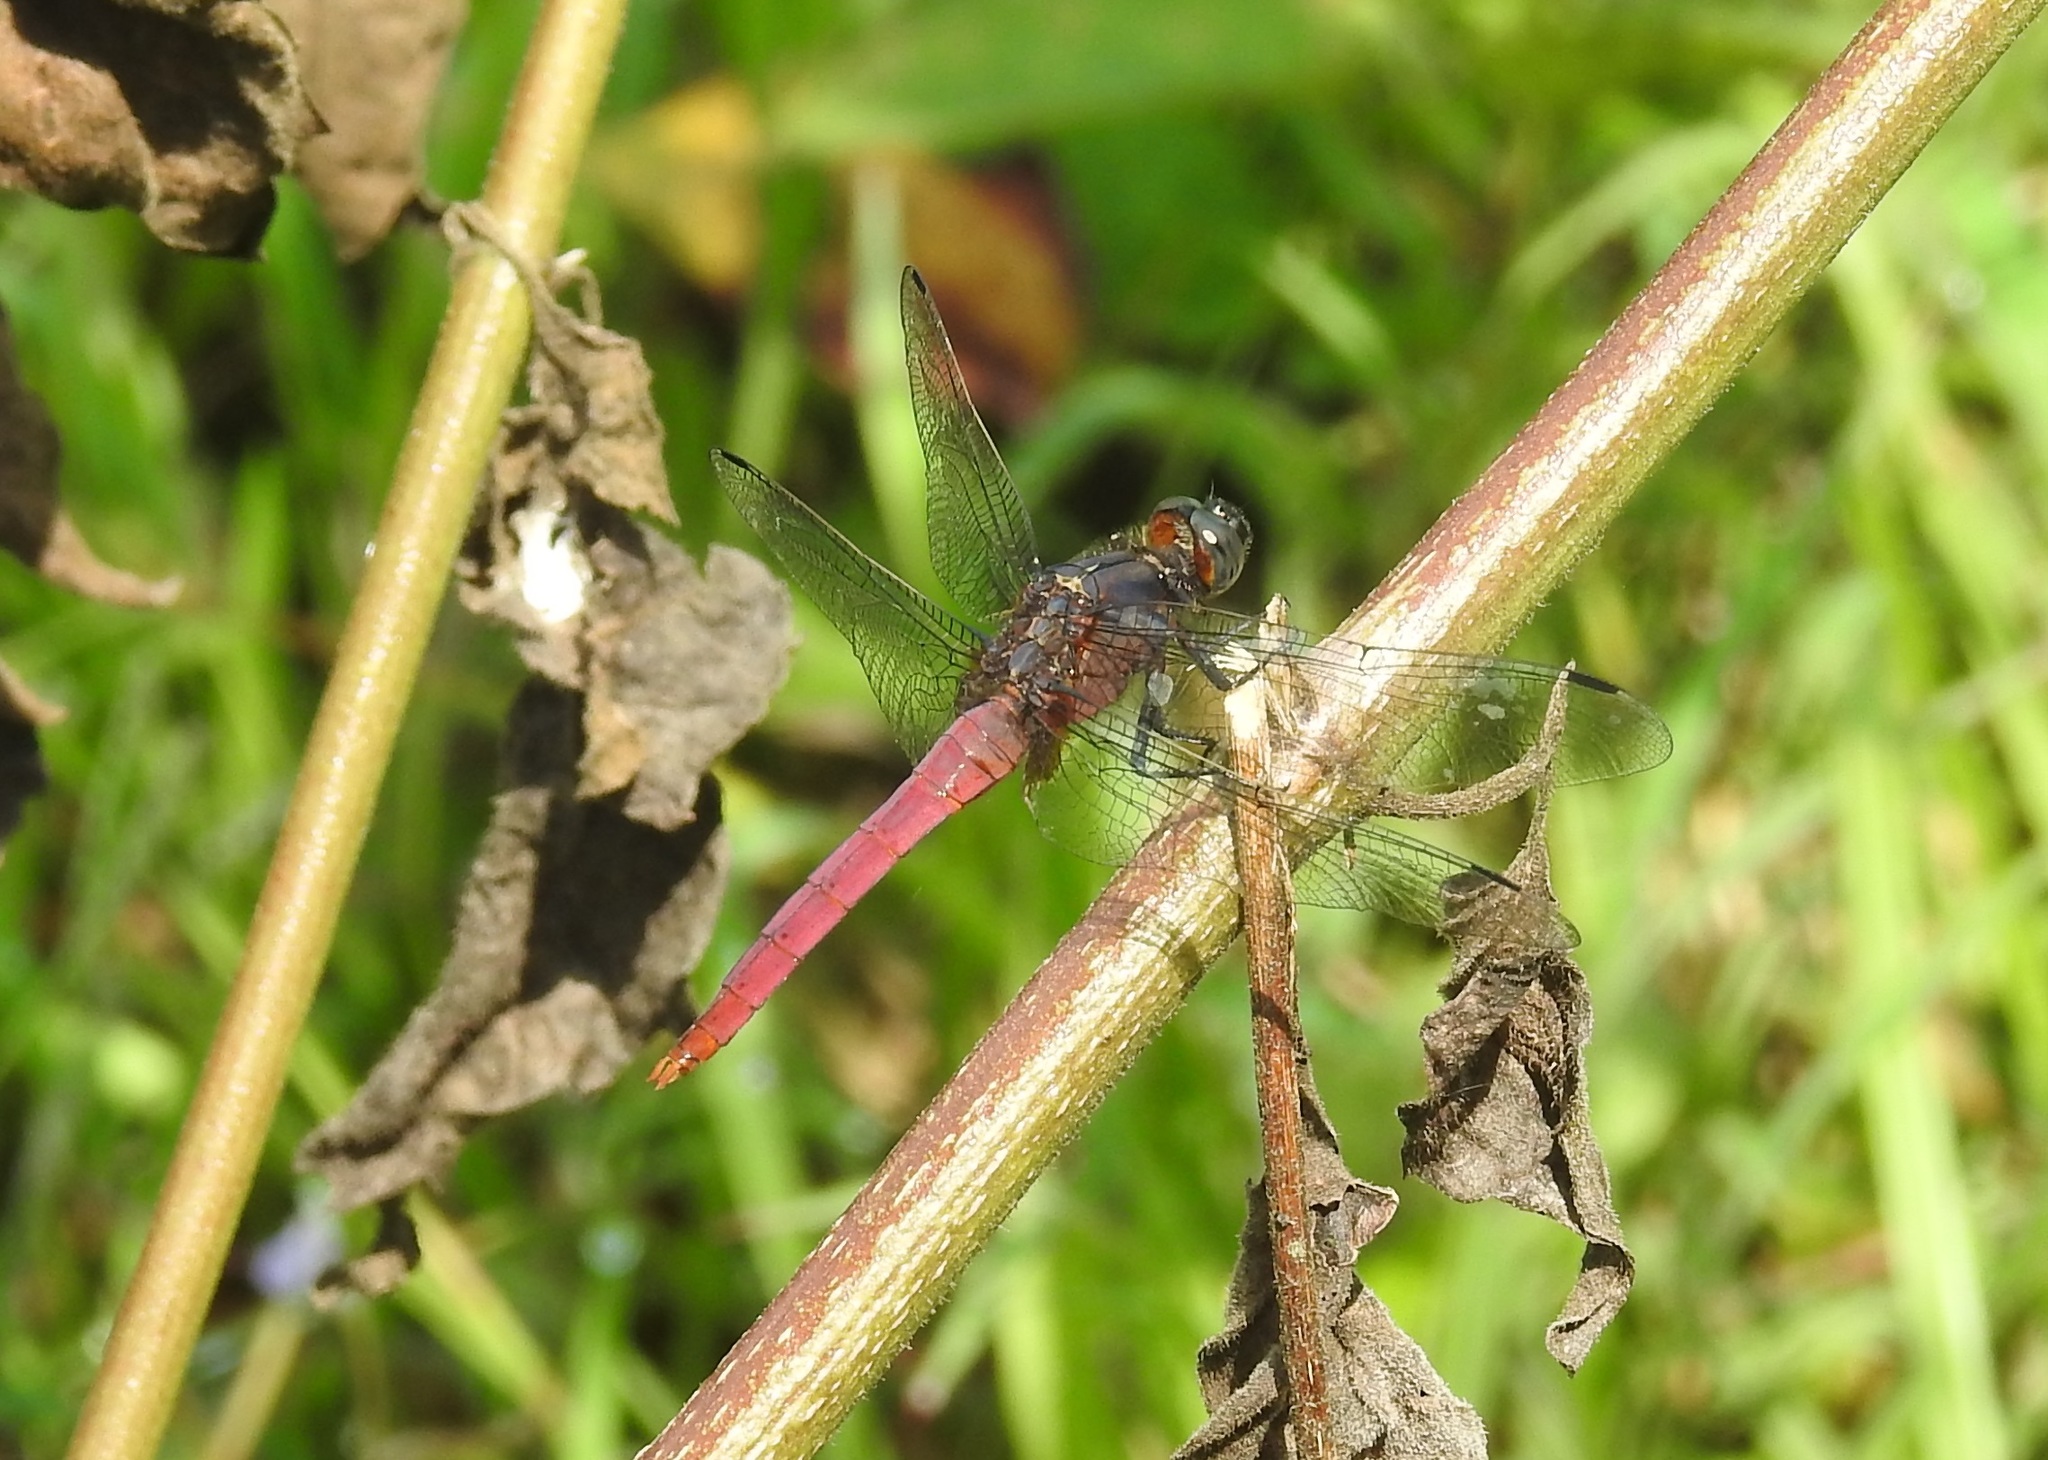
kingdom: Animalia
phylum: Arthropoda
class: Insecta
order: Odonata
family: Libellulidae
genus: Orthetrum
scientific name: Orthetrum pruinosum
